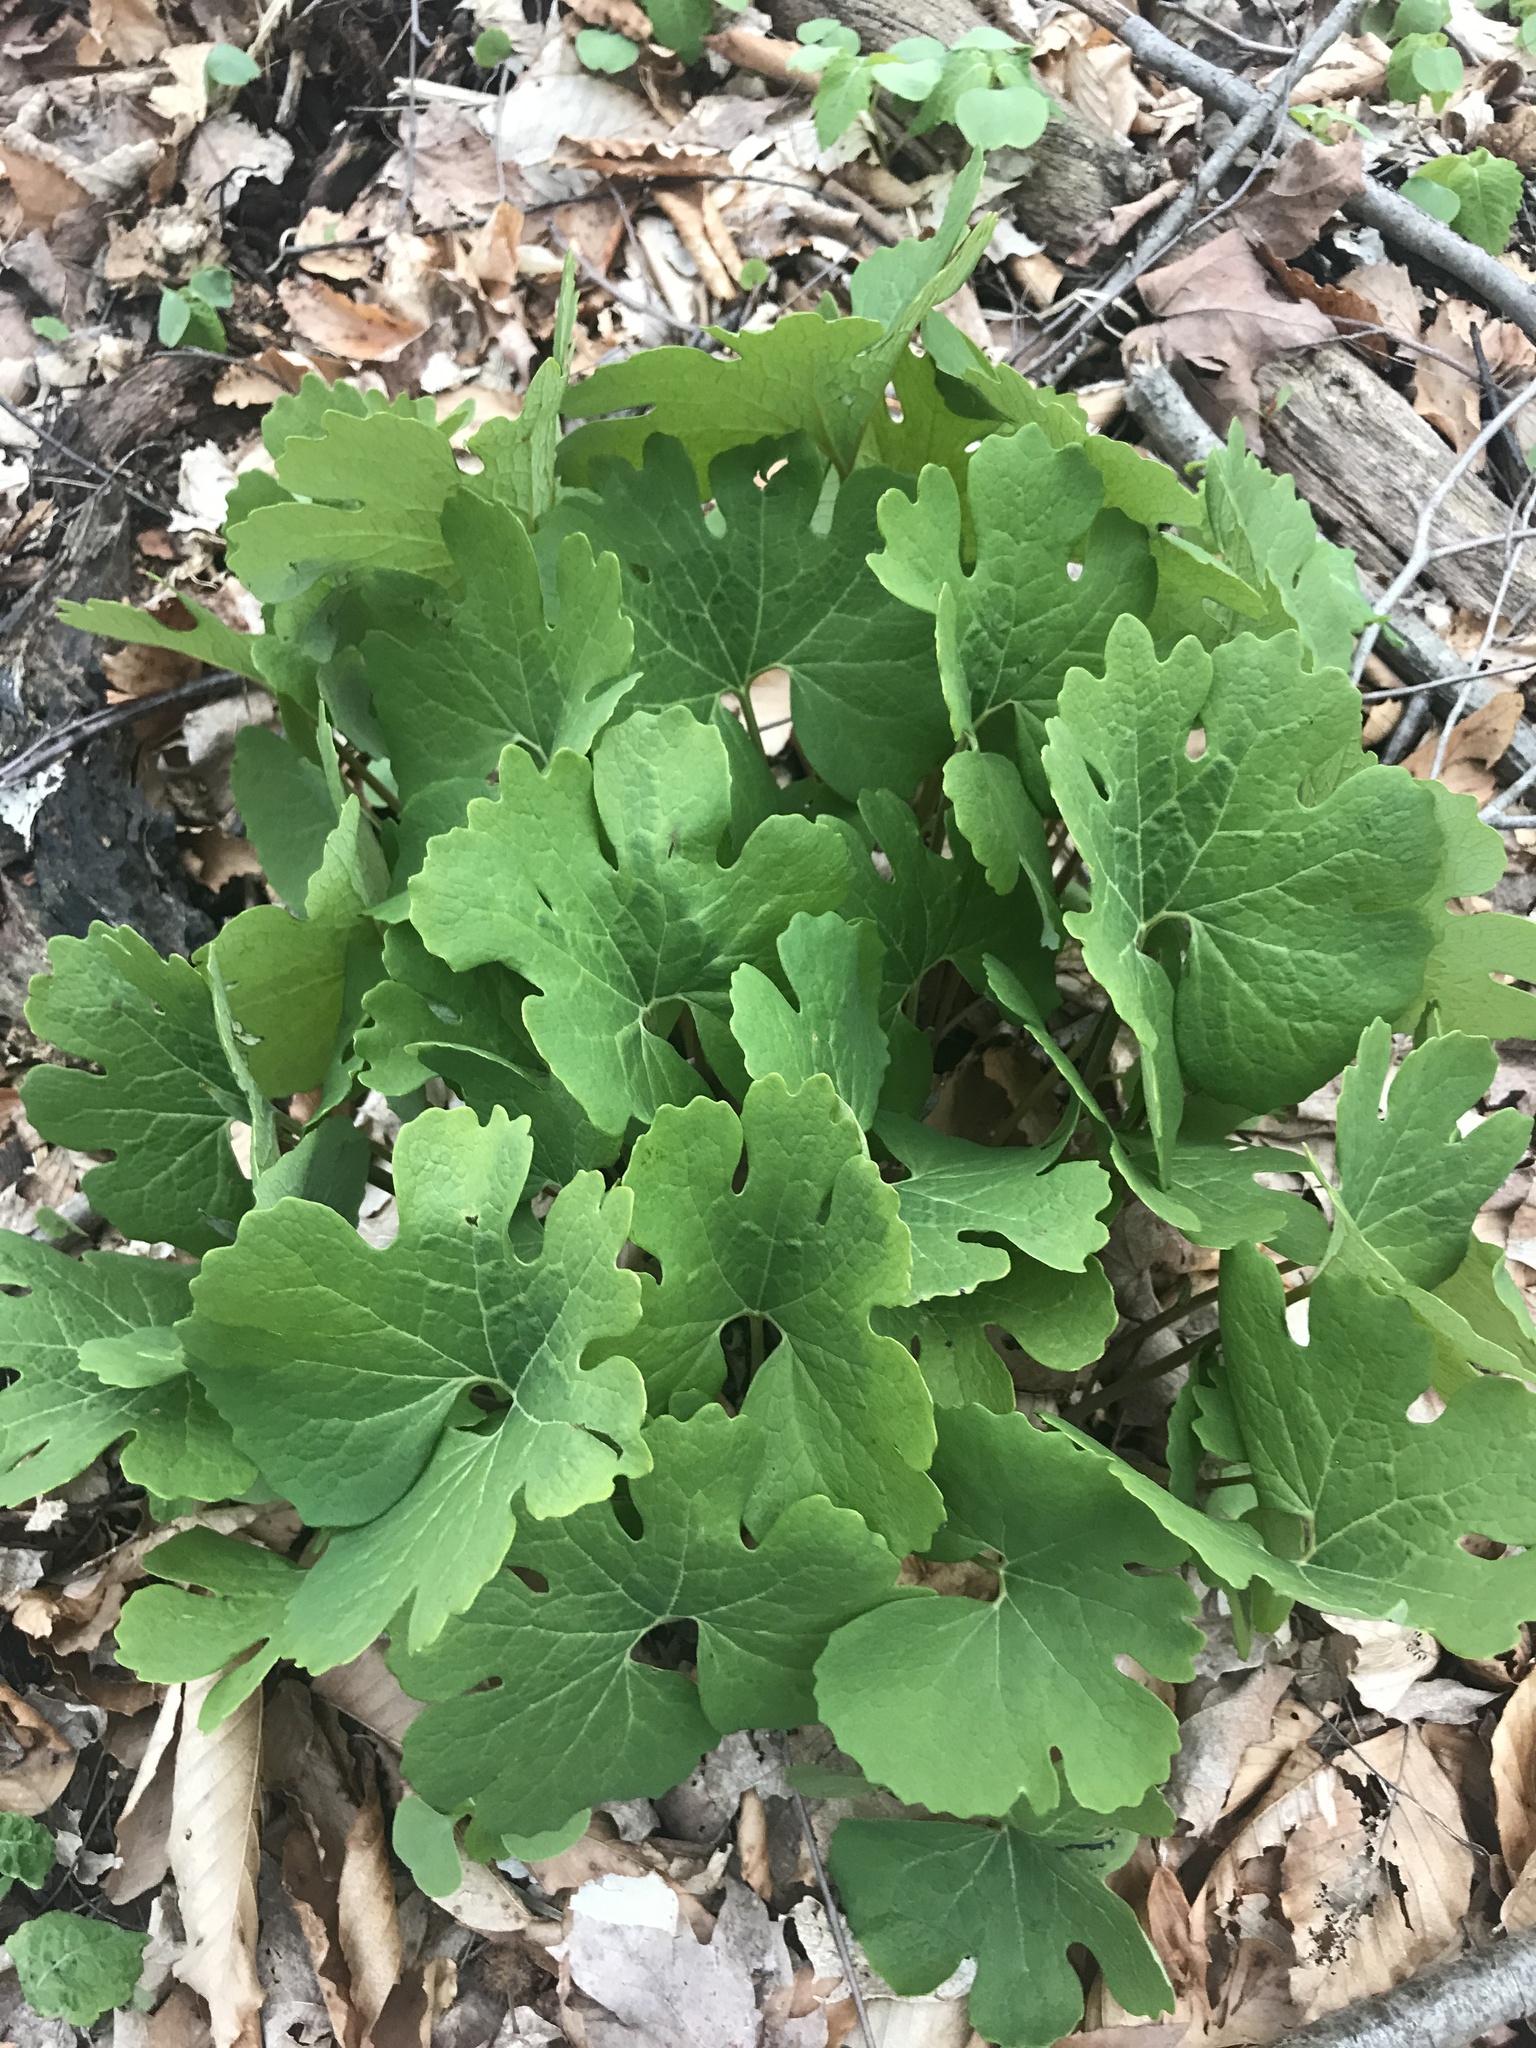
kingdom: Plantae
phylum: Tracheophyta
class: Magnoliopsida
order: Ranunculales
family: Papaveraceae
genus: Sanguinaria
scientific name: Sanguinaria canadensis
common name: Bloodroot
